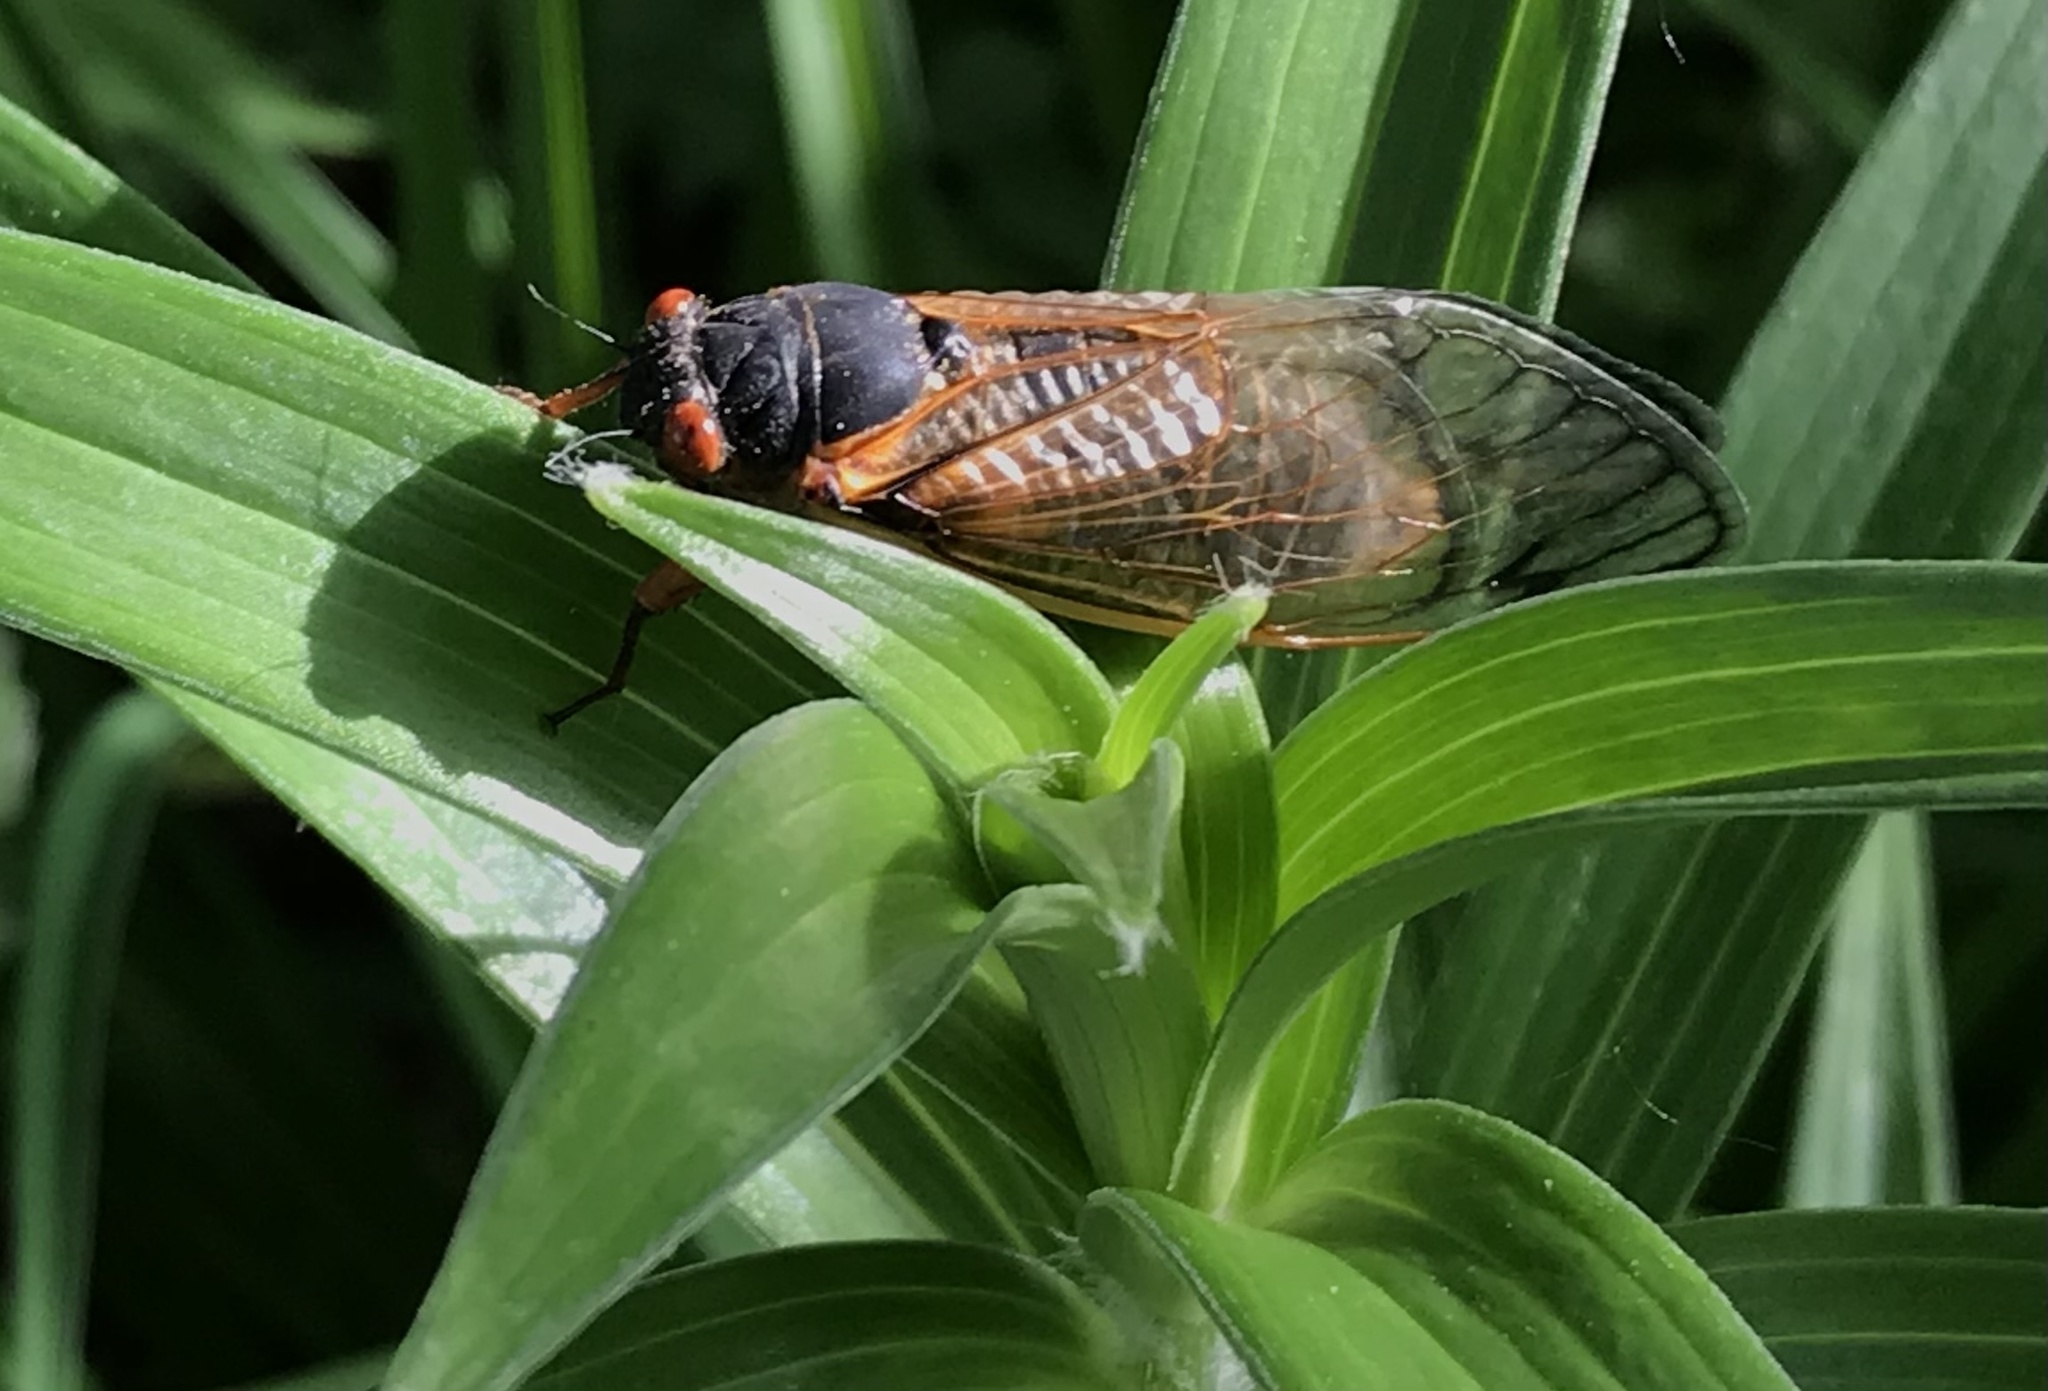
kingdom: Animalia
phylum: Arthropoda
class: Insecta
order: Hemiptera
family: Cicadidae
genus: Magicicada
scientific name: Magicicada
